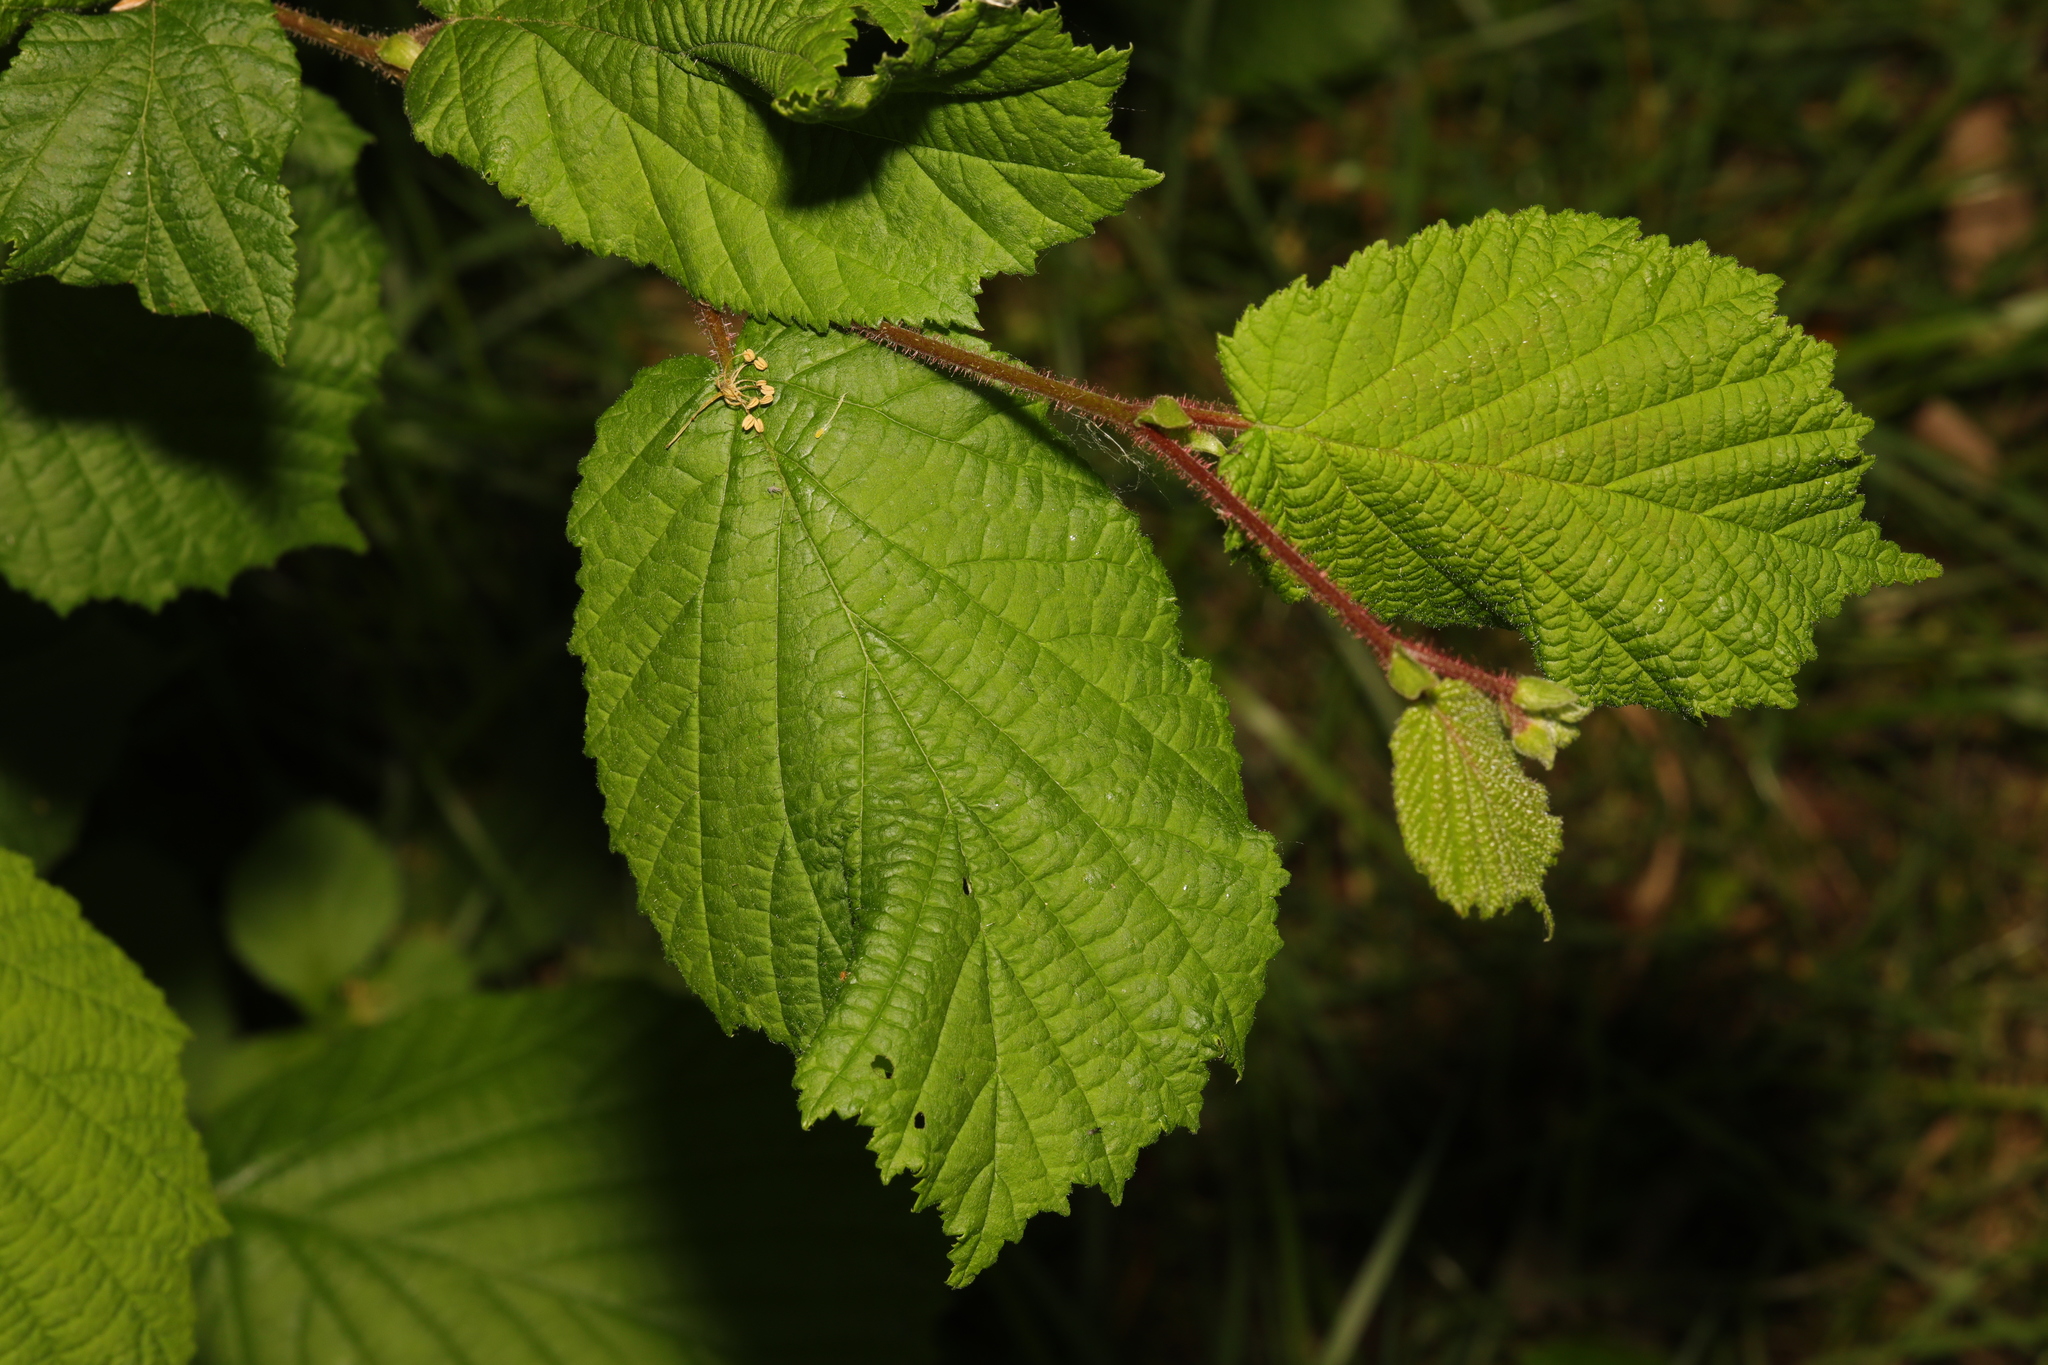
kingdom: Plantae
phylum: Tracheophyta
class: Magnoliopsida
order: Fagales
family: Betulaceae
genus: Corylus
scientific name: Corylus avellana
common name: European hazel
